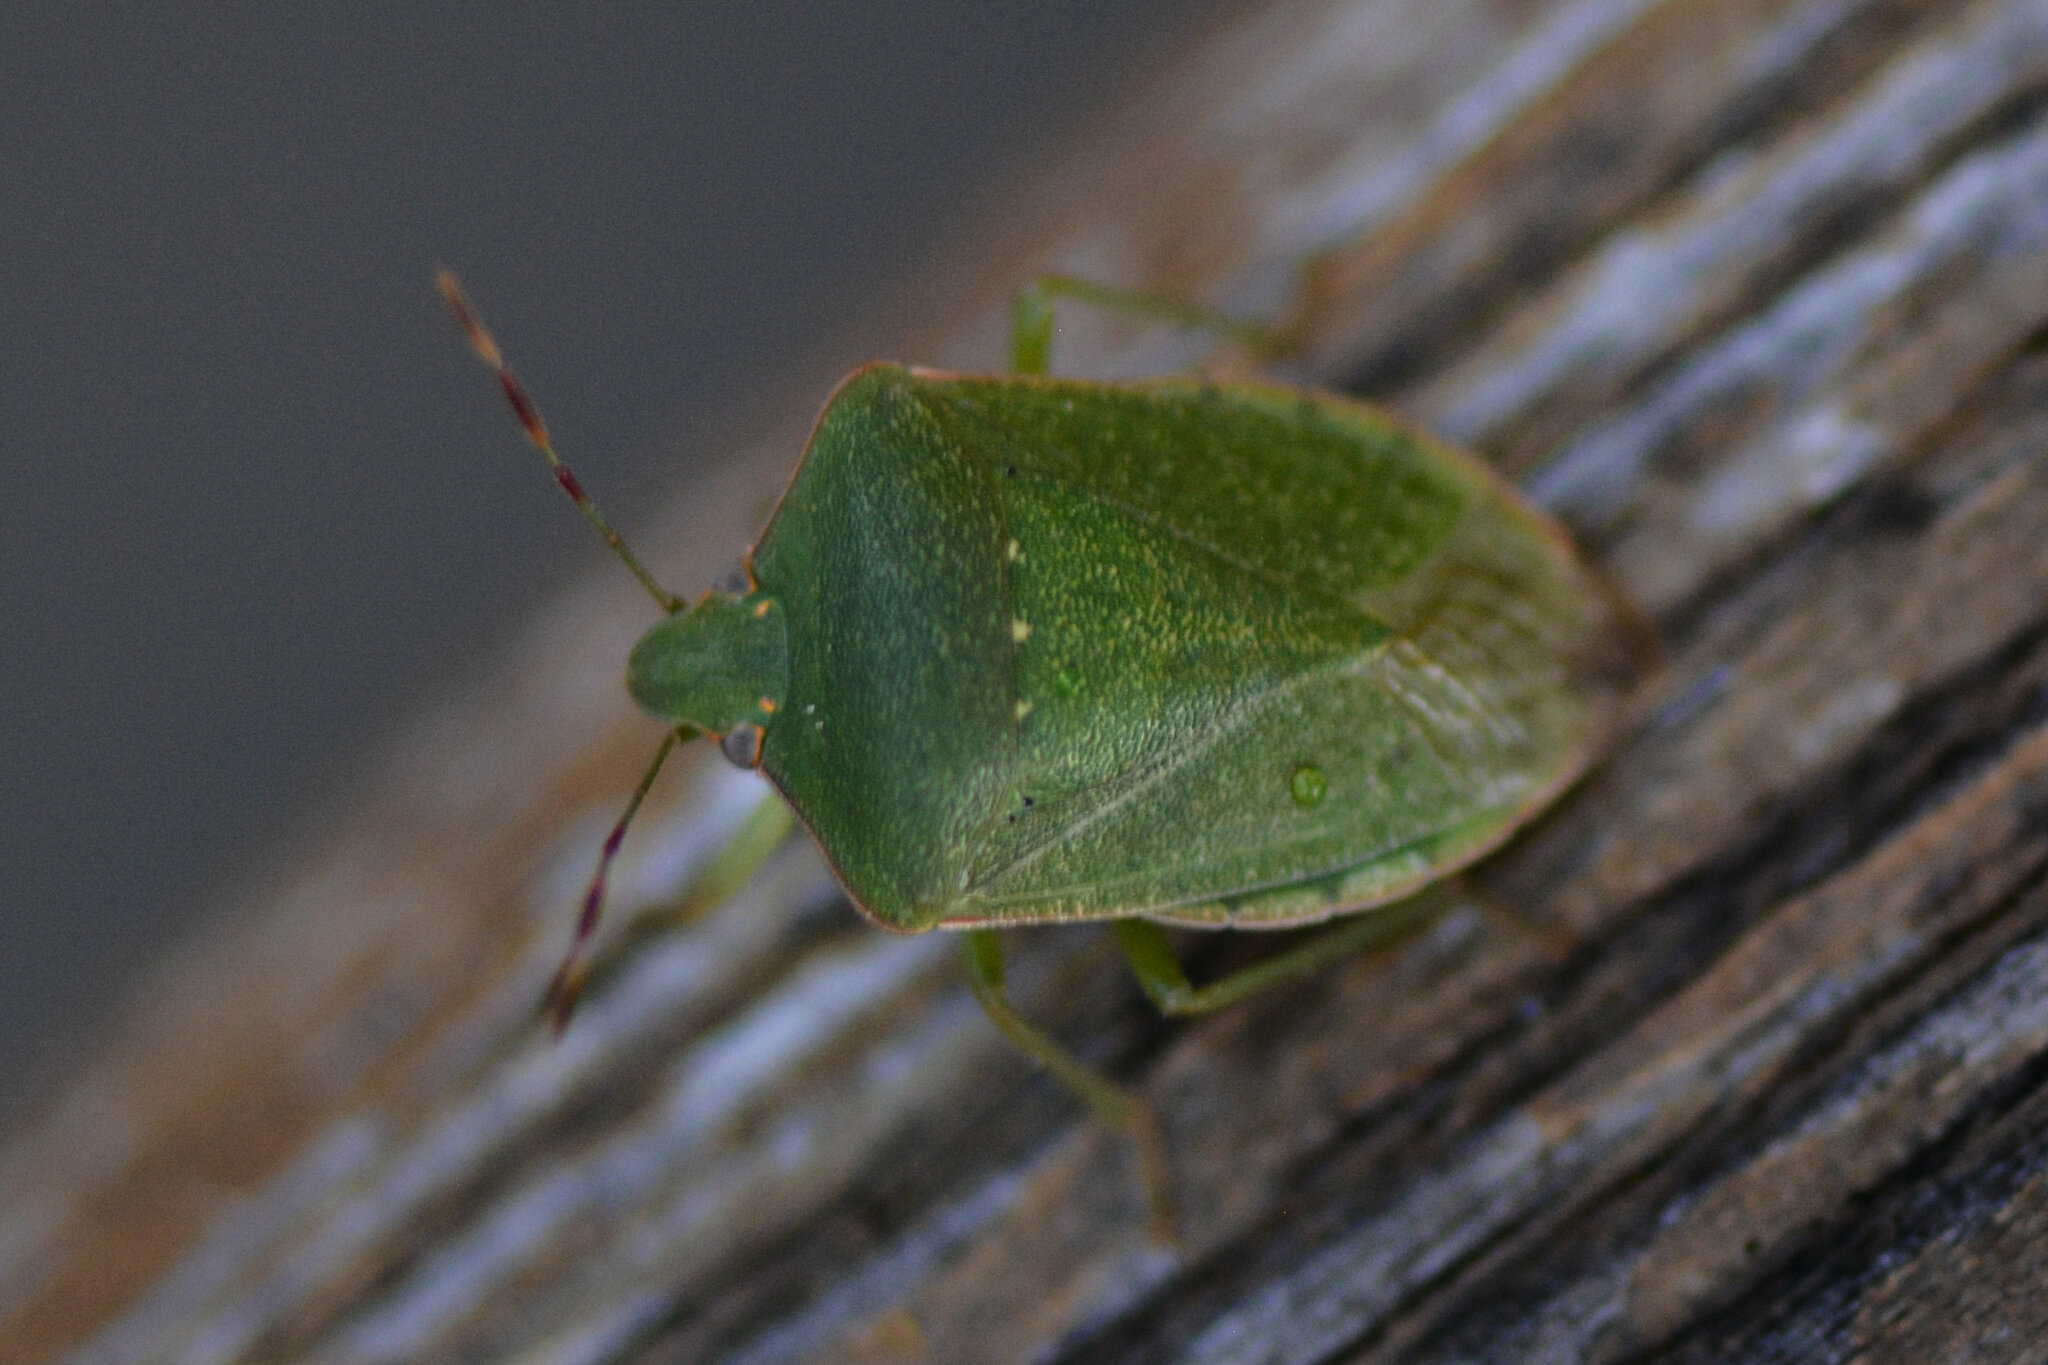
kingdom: Animalia
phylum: Arthropoda
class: Insecta
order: Hemiptera
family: Pentatomidae
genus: Nezara
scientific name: Nezara viridula
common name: Southern green stink bug
